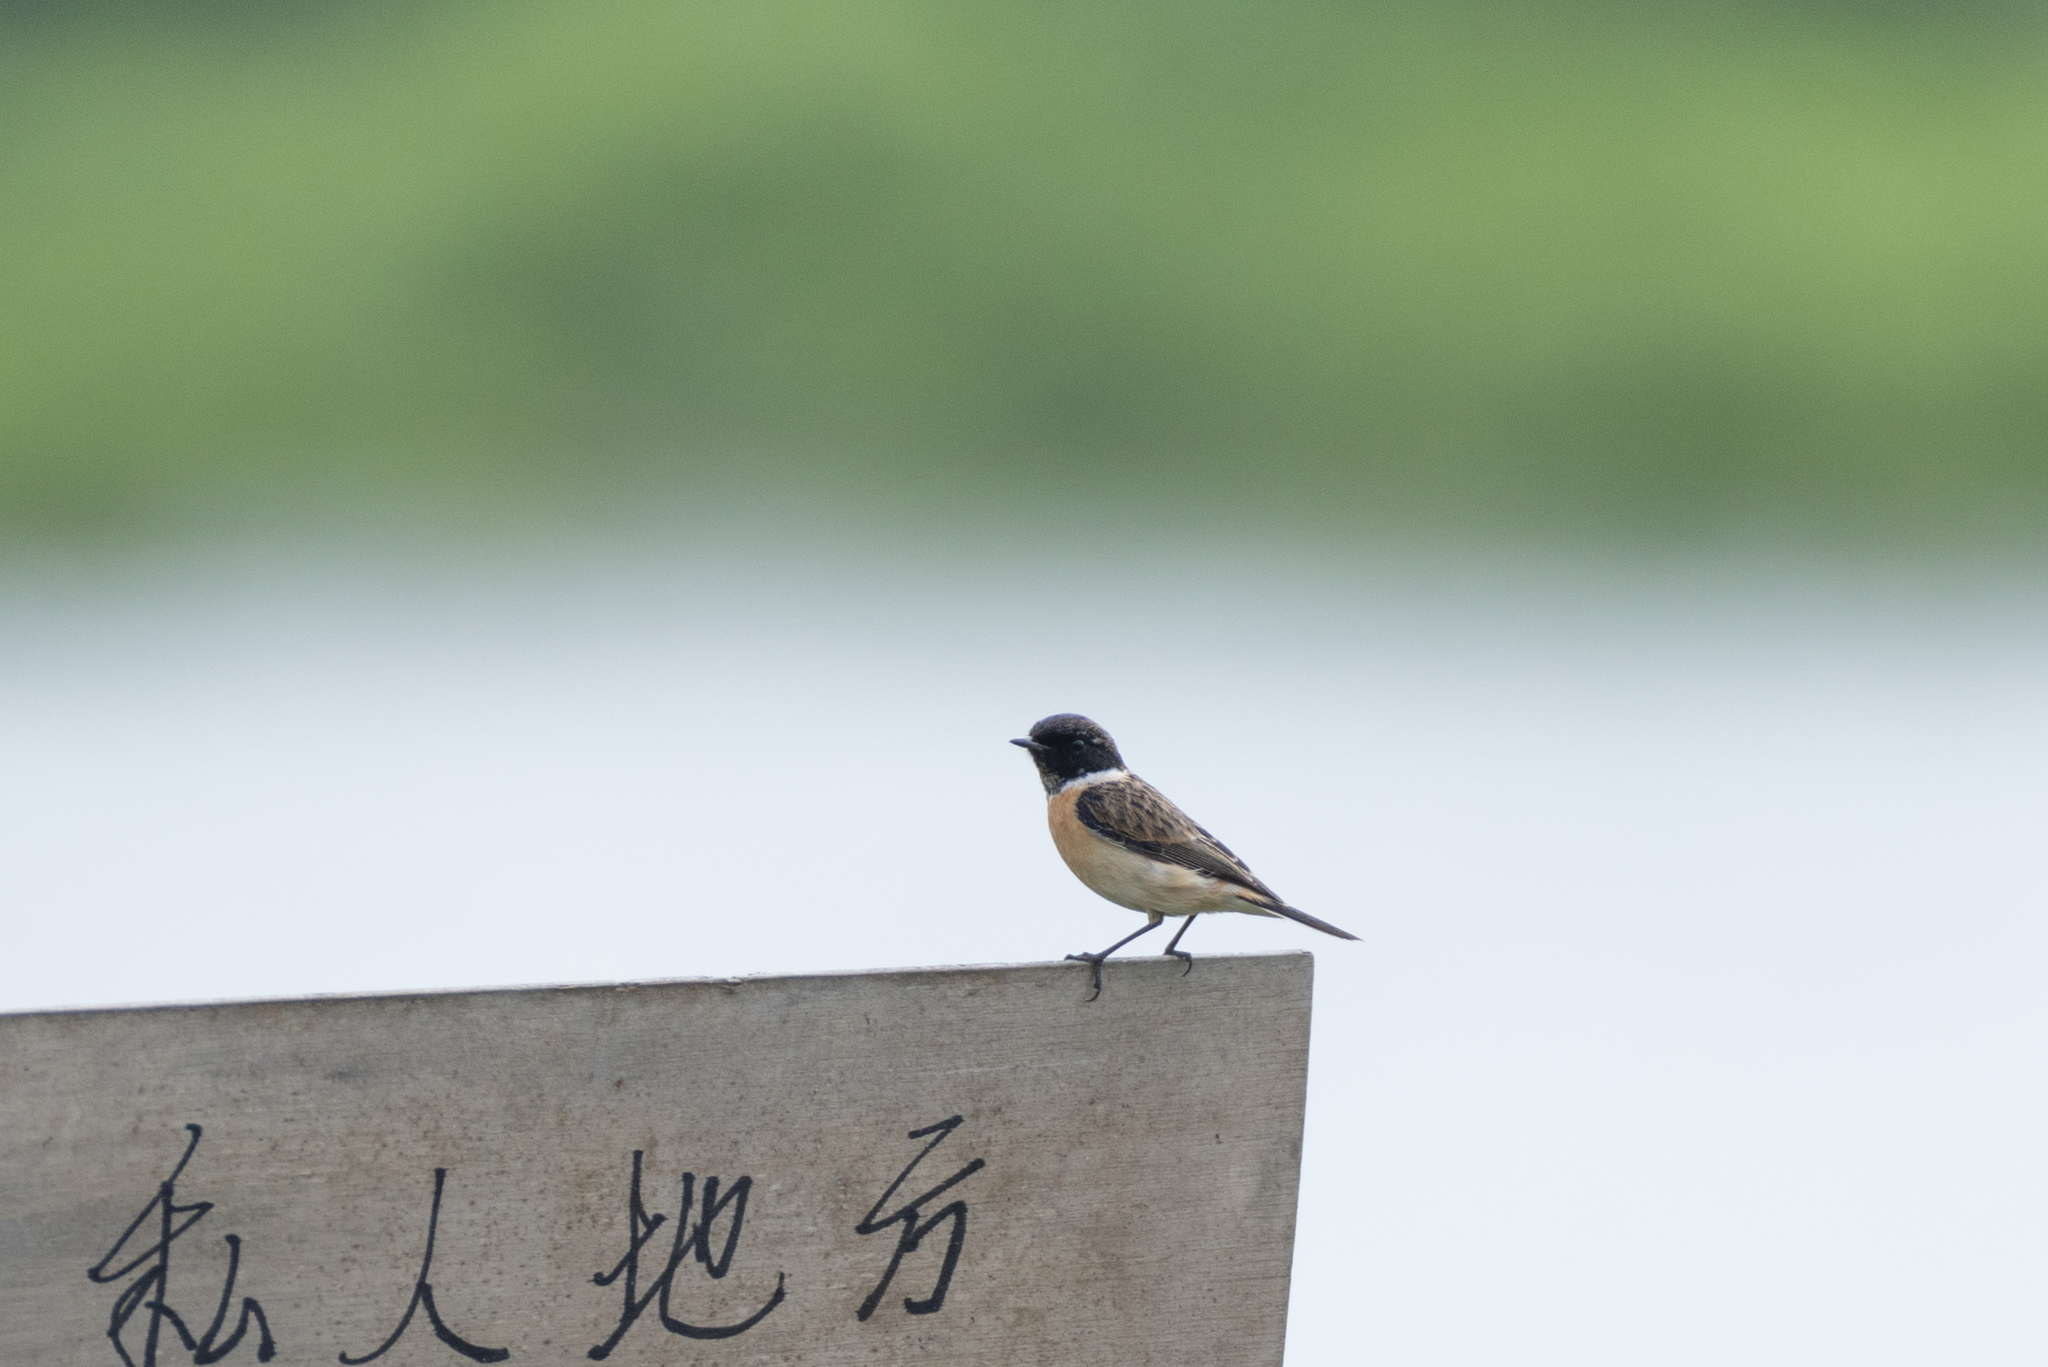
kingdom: Animalia
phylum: Chordata
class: Aves
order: Passeriformes
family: Muscicapidae
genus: Saxicola
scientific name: Saxicola maurus
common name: Siberian stonechat
